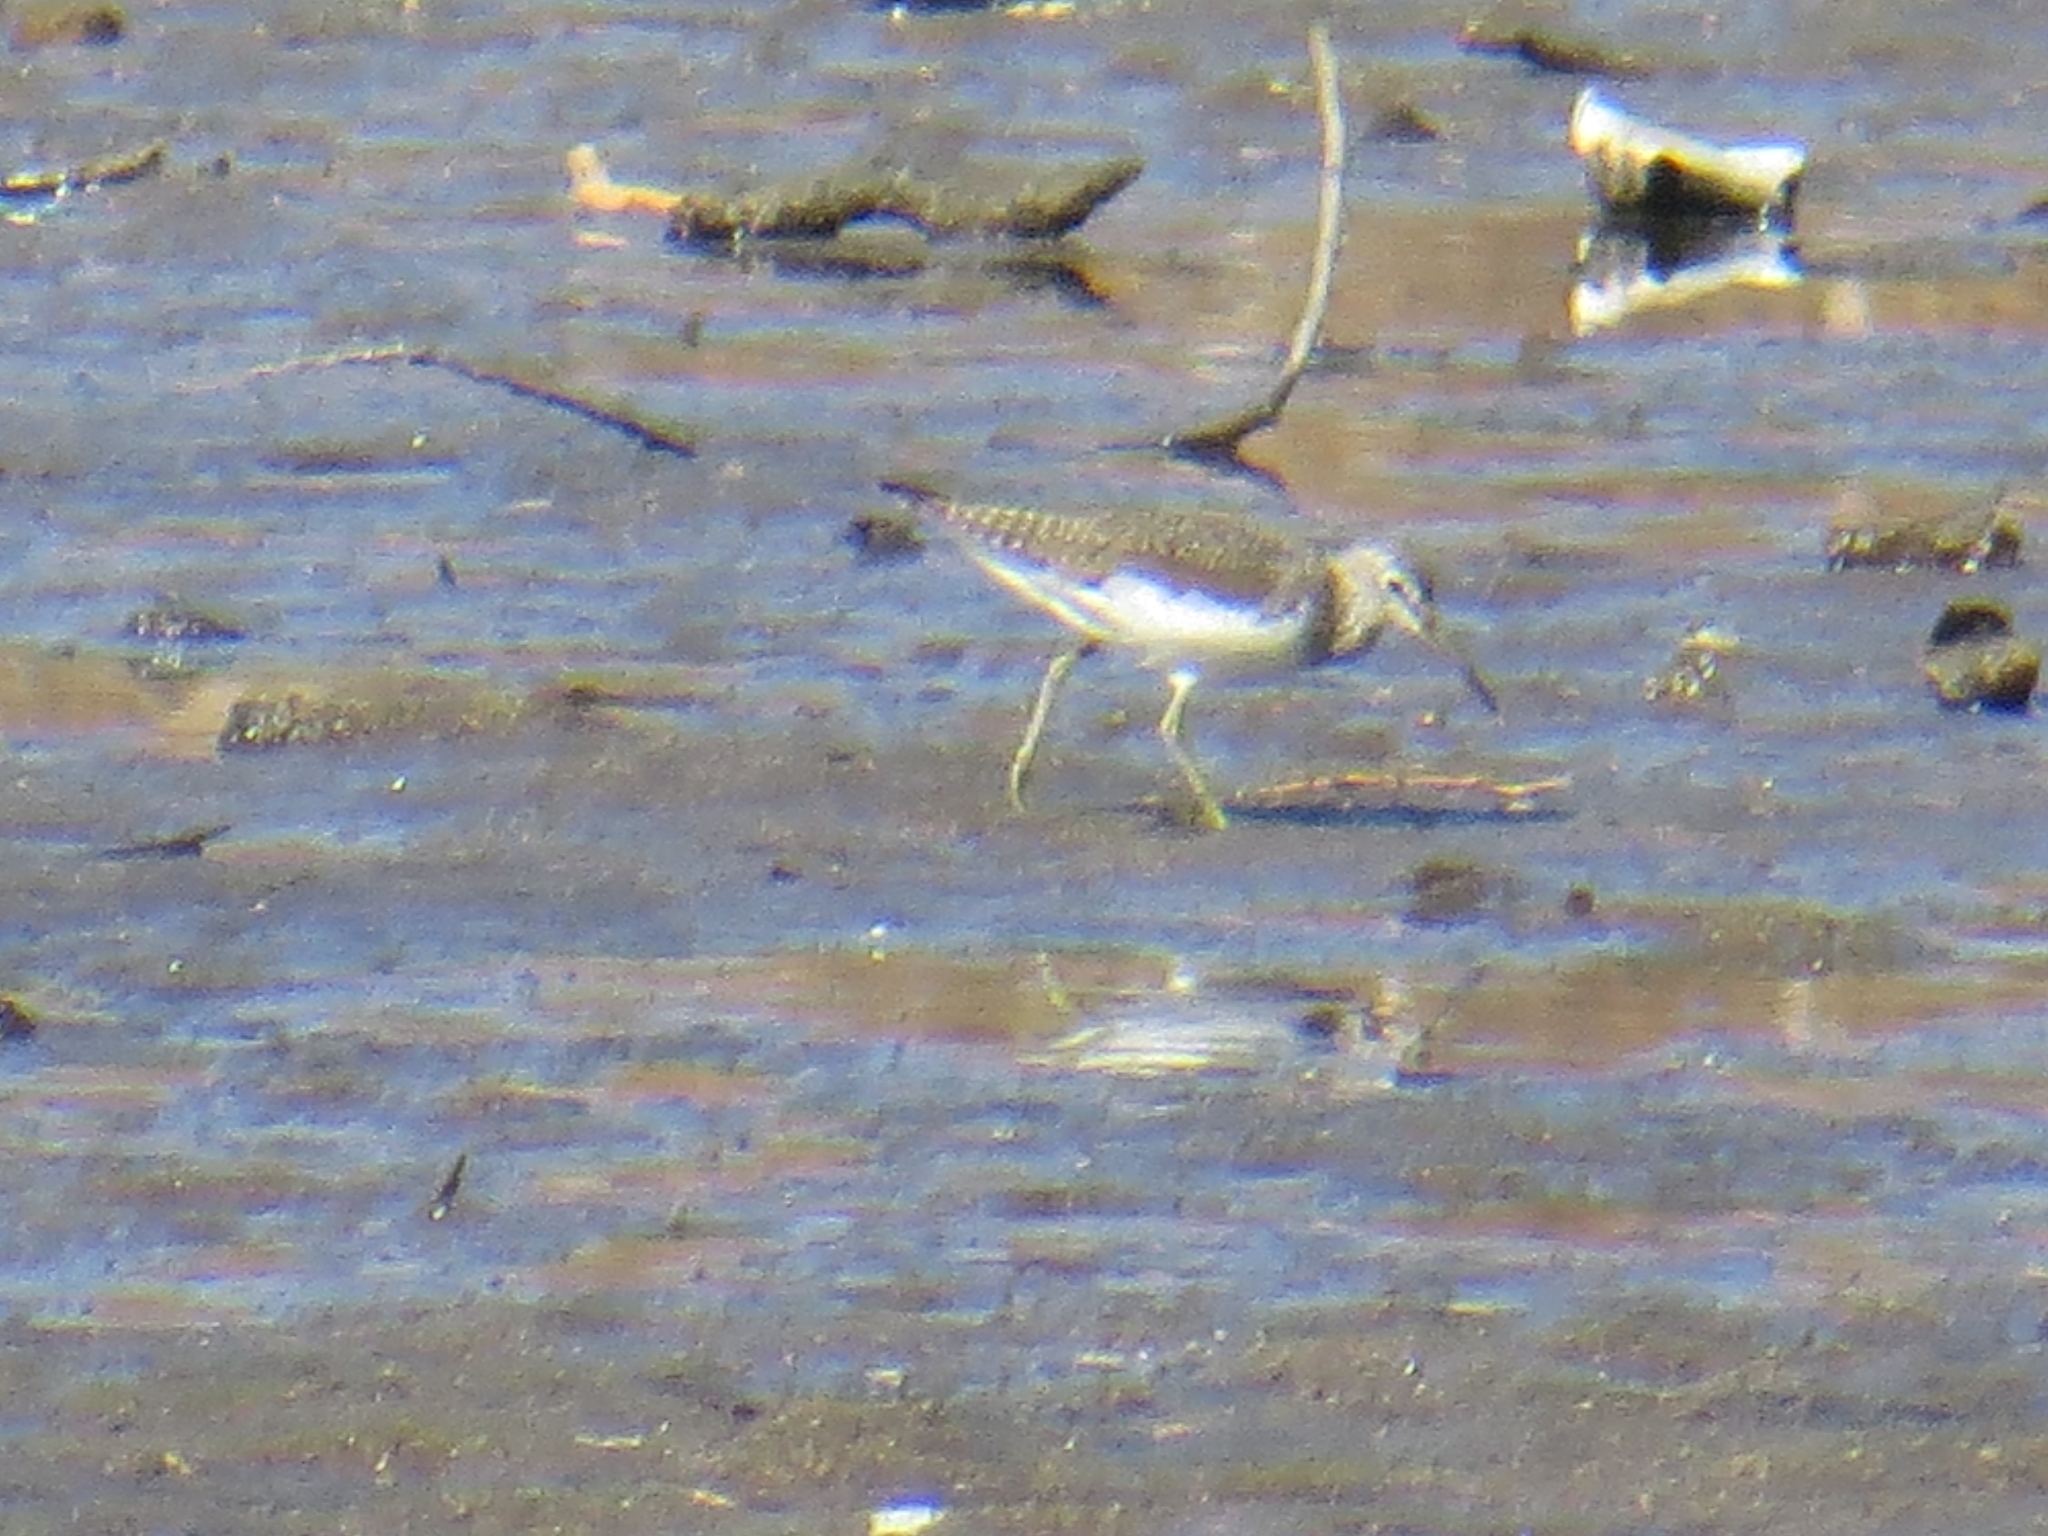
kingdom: Animalia
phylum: Chordata
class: Aves
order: Charadriiformes
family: Scolopacidae
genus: Tringa
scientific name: Tringa ochropus
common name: Green sandpiper
